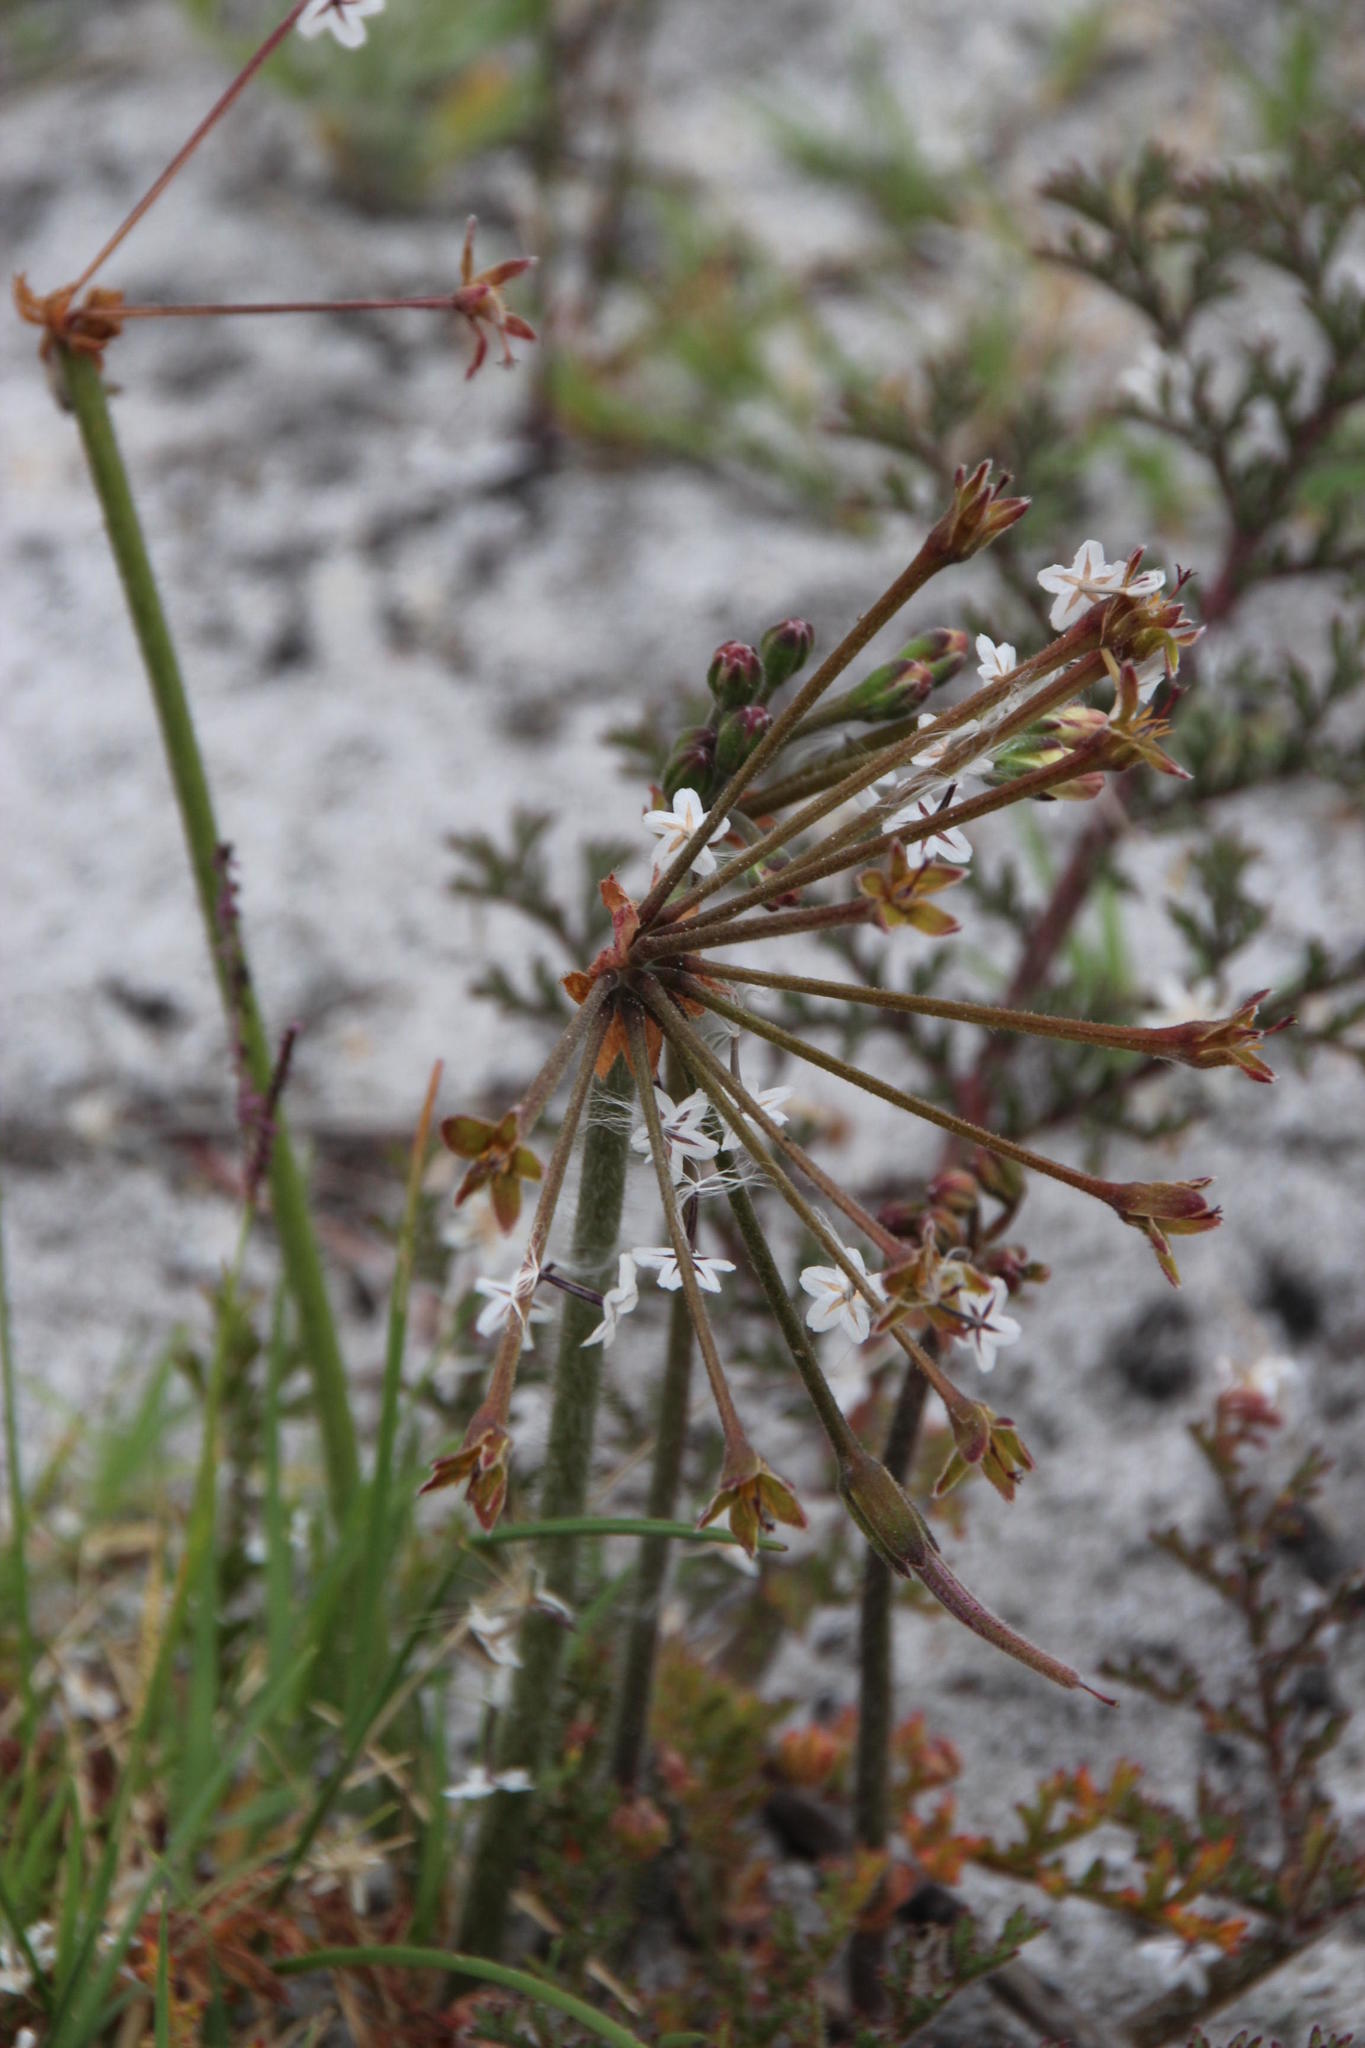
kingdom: Plantae
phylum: Tracheophyta
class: Magnoliopsida
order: Geraniales
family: Geraniaceae
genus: Pelargonium
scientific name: Pelargonium triste
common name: Night-scent pelargonium
